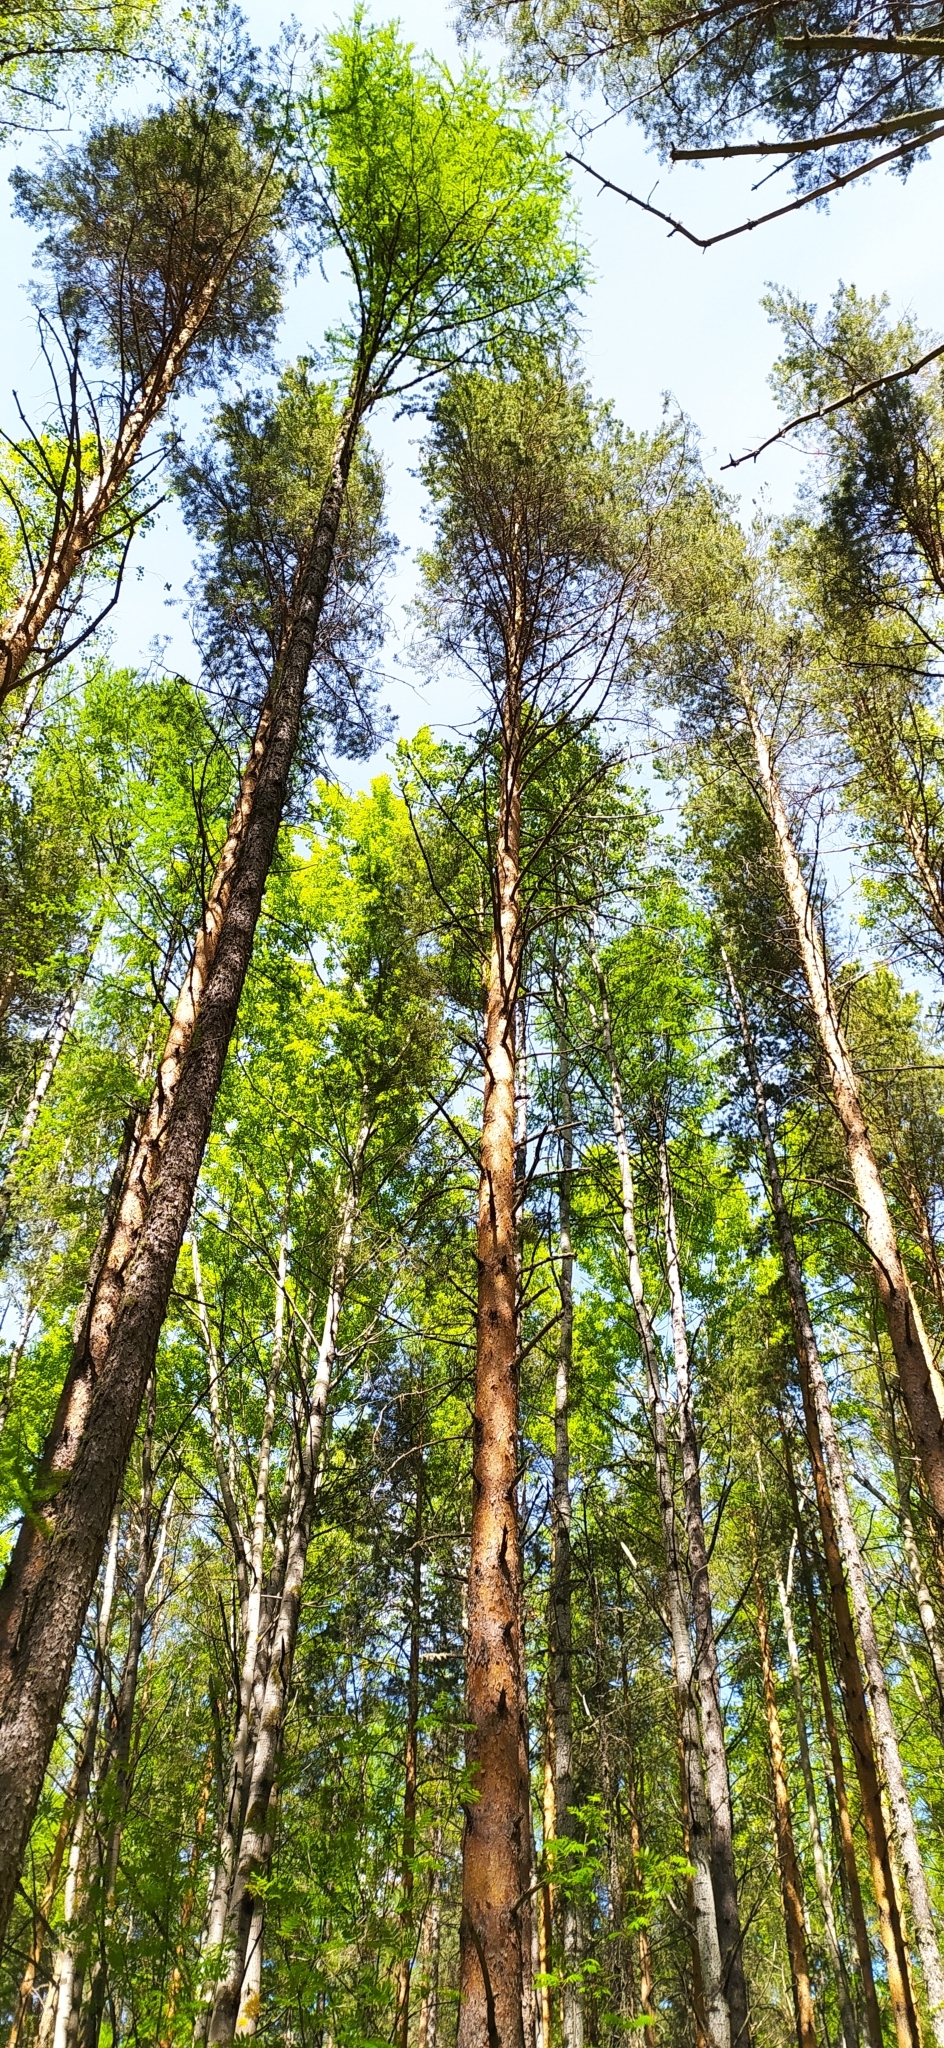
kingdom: Plantae
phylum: Tracheophyta
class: Pinopsida
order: Pinales
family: Pinaceae
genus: Pinus
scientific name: Pinus sylvestris
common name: Scots pine
